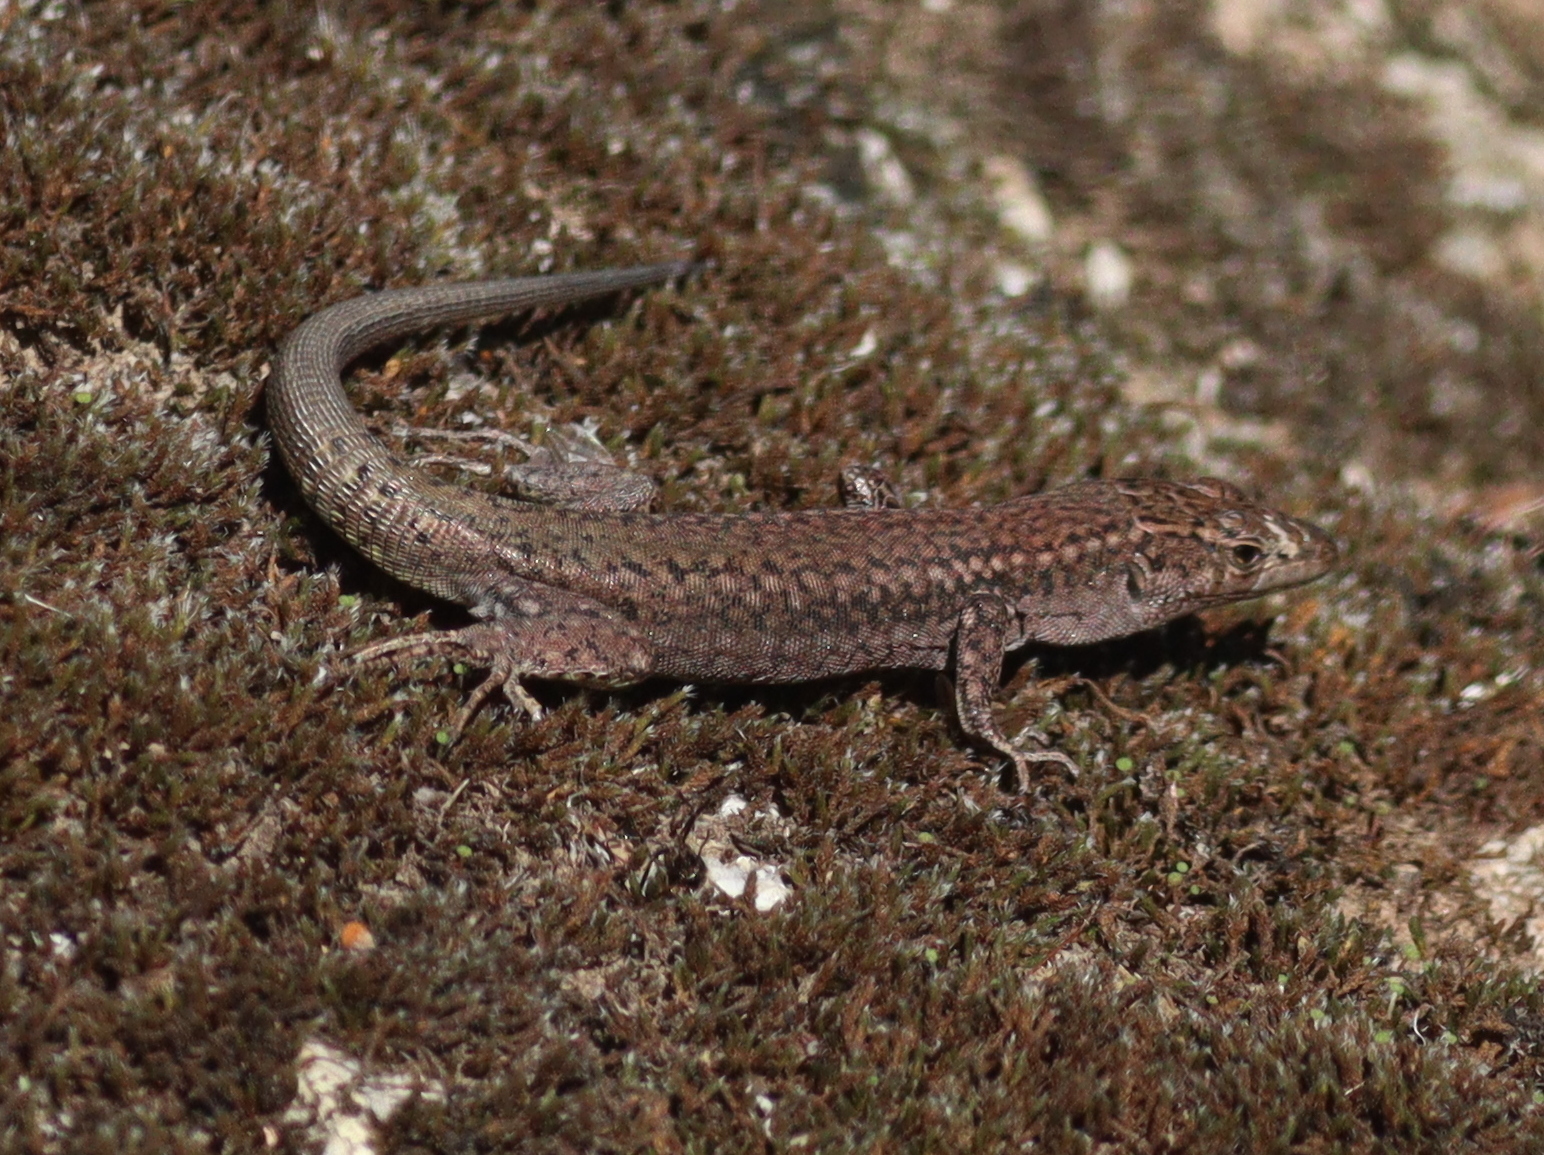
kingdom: Animalia
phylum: Chordata
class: Squamata
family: Lacertidae
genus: Podarcis
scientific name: Podarcis virescens
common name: Geniez’s wall lizard
